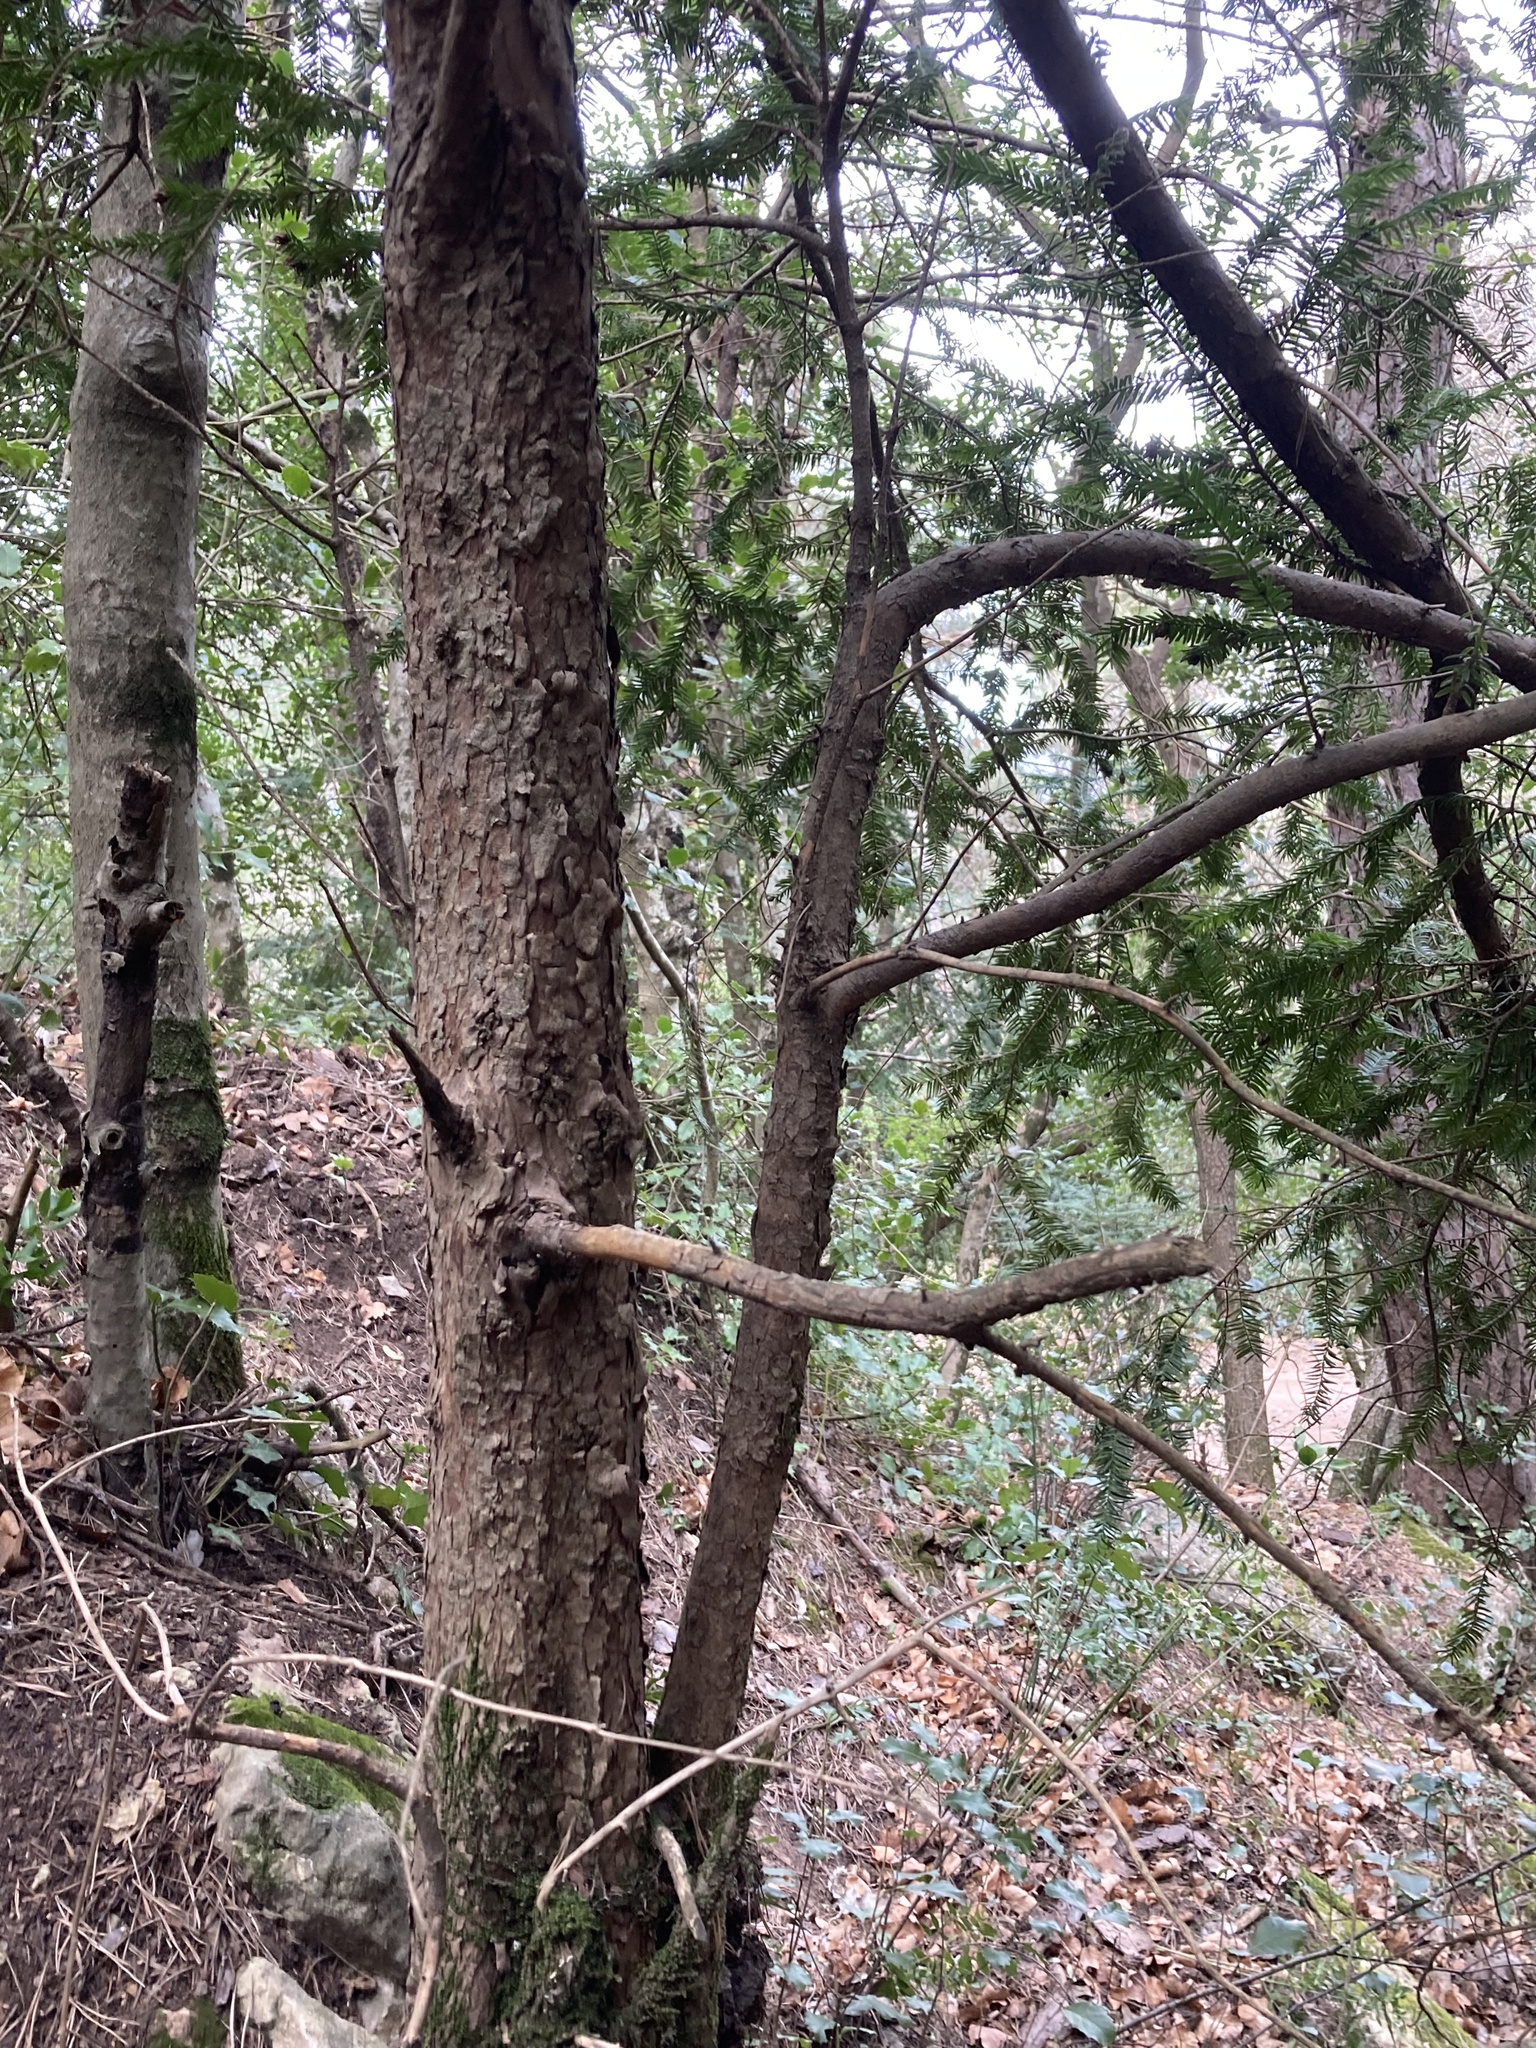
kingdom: Plantae
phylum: Tracheophyta
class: Pinopsida
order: Pinales
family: Taxaceae
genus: Taxus
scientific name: Taxus baccata
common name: Yew
